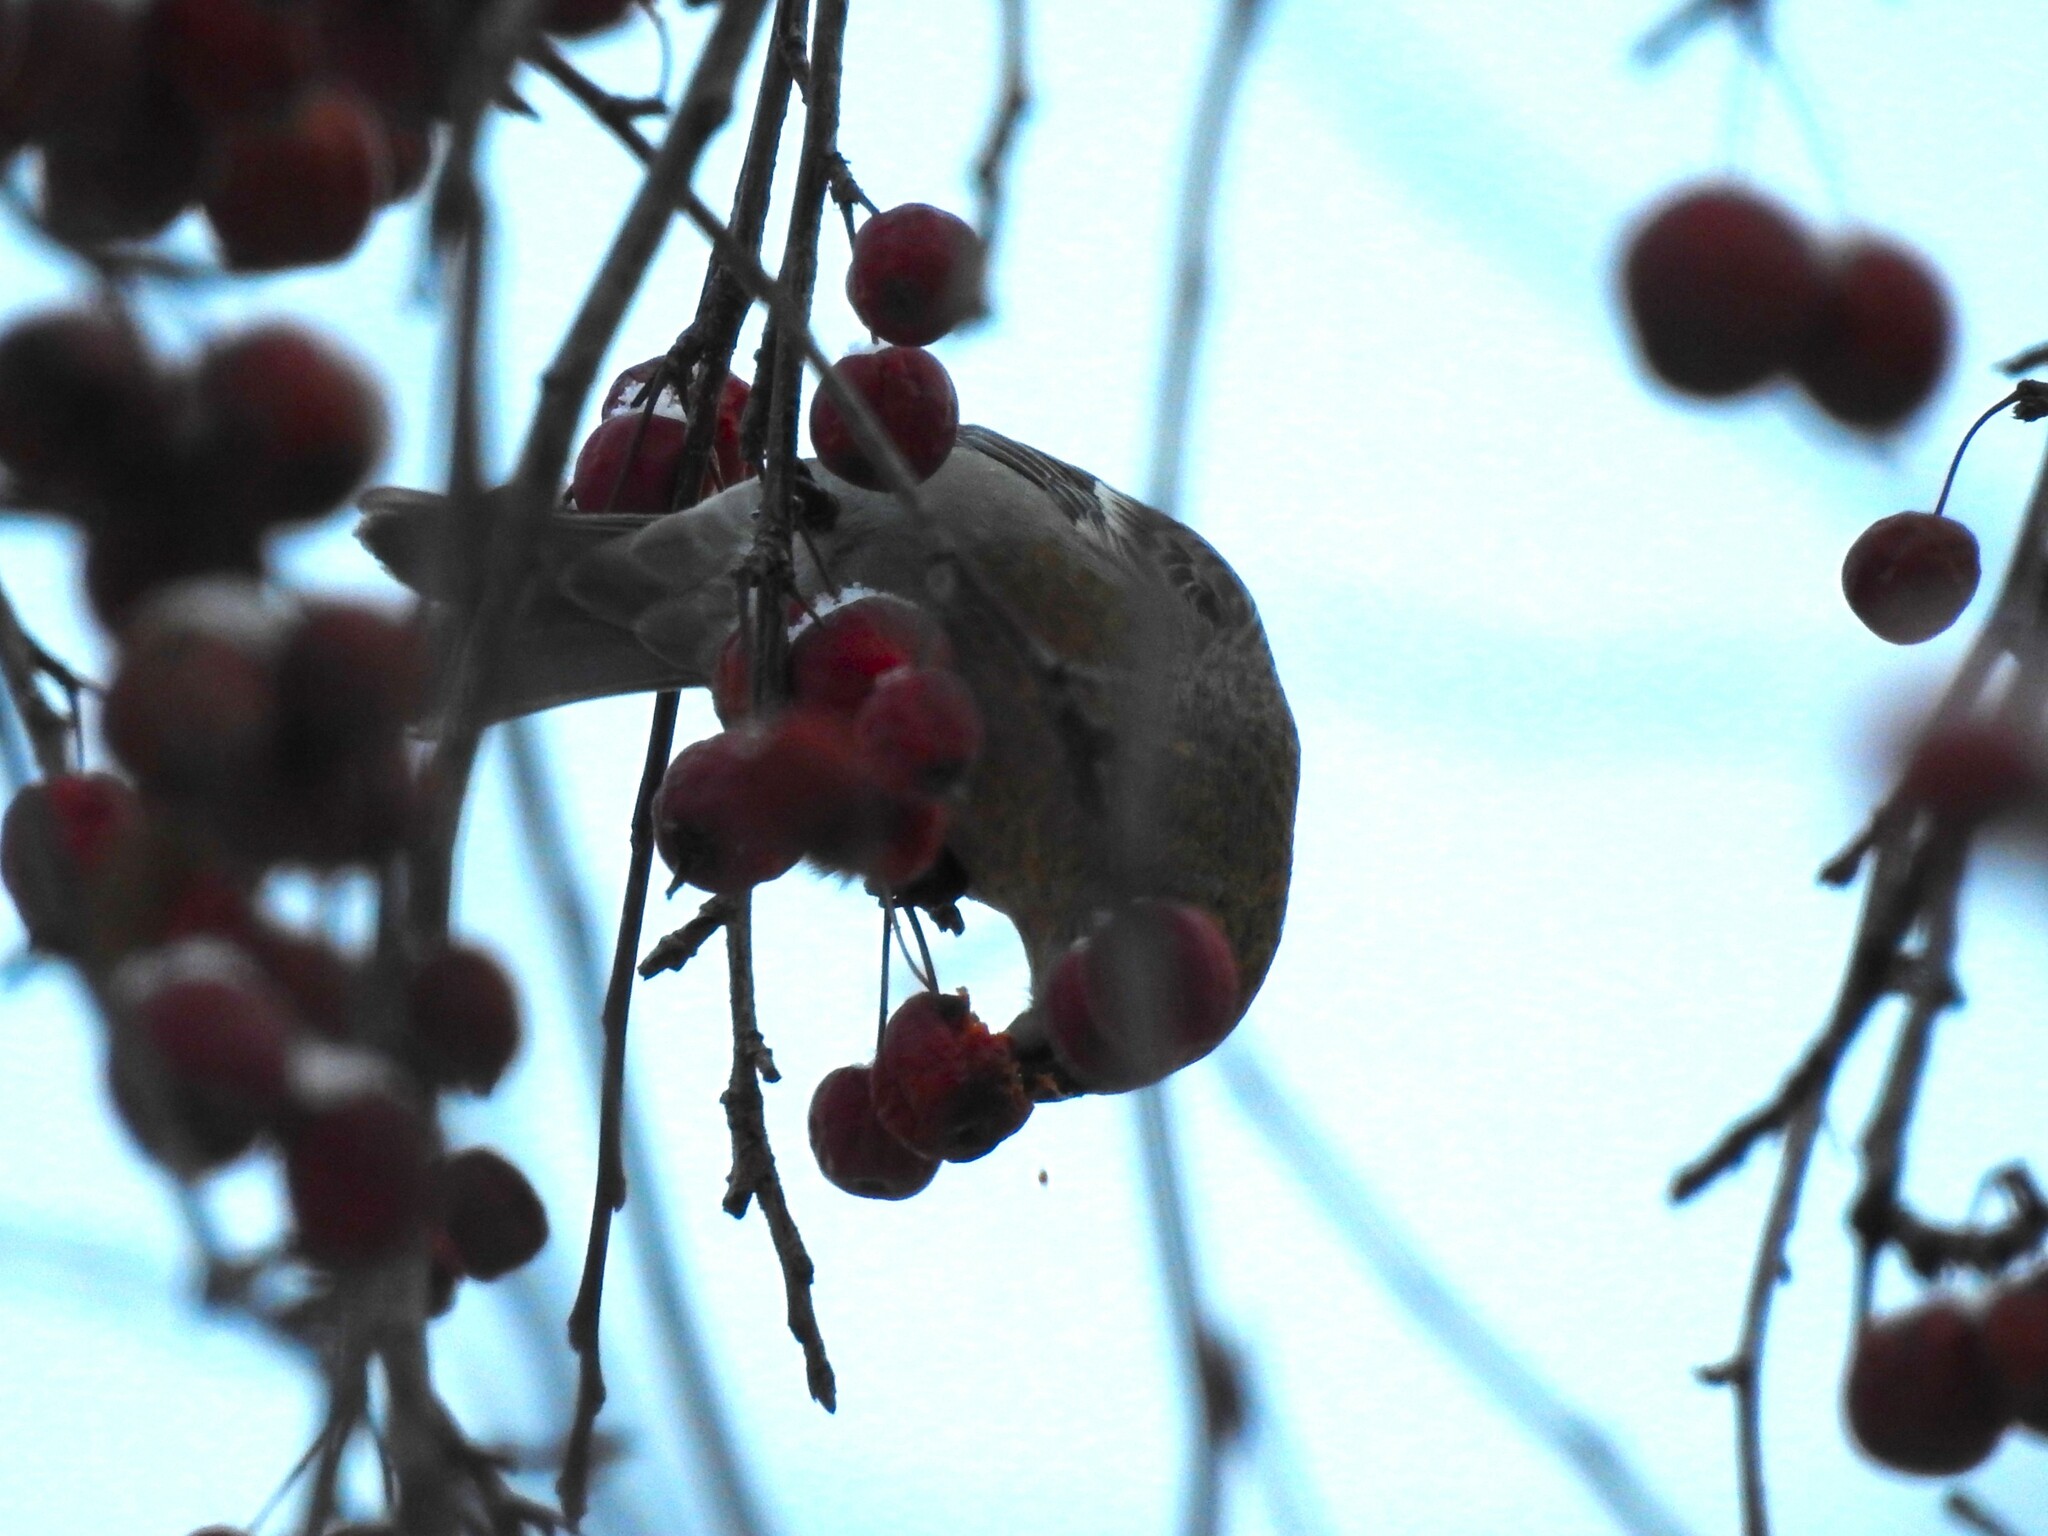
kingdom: Animalia
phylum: Chordata
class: Aves
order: Passeriformes
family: Fringillidae
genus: Pinicola
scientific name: Pinicola enucleator
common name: Pine grosbeak
